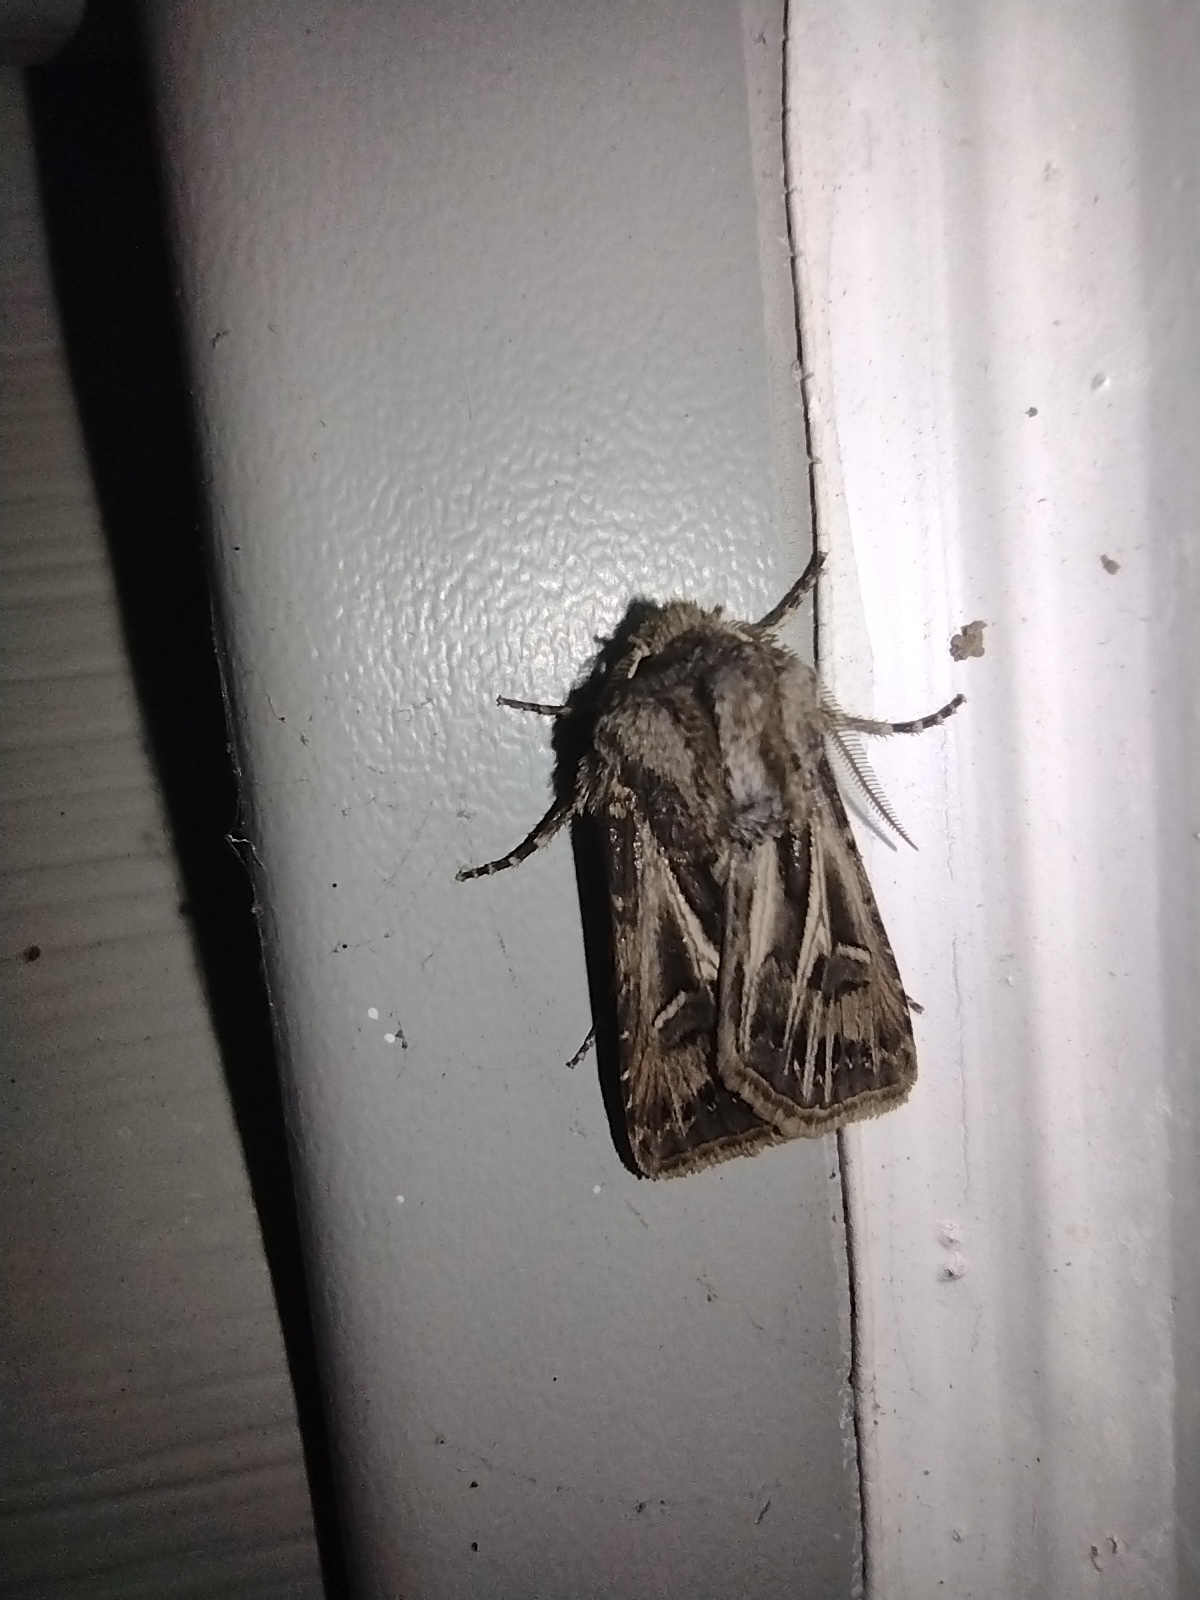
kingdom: Animalia
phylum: Arthropoda
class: Insecta
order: Lepidoptera
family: Noctuidae
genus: Agrotis
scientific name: Agrotis gladiaria
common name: Claybacked cutworm
